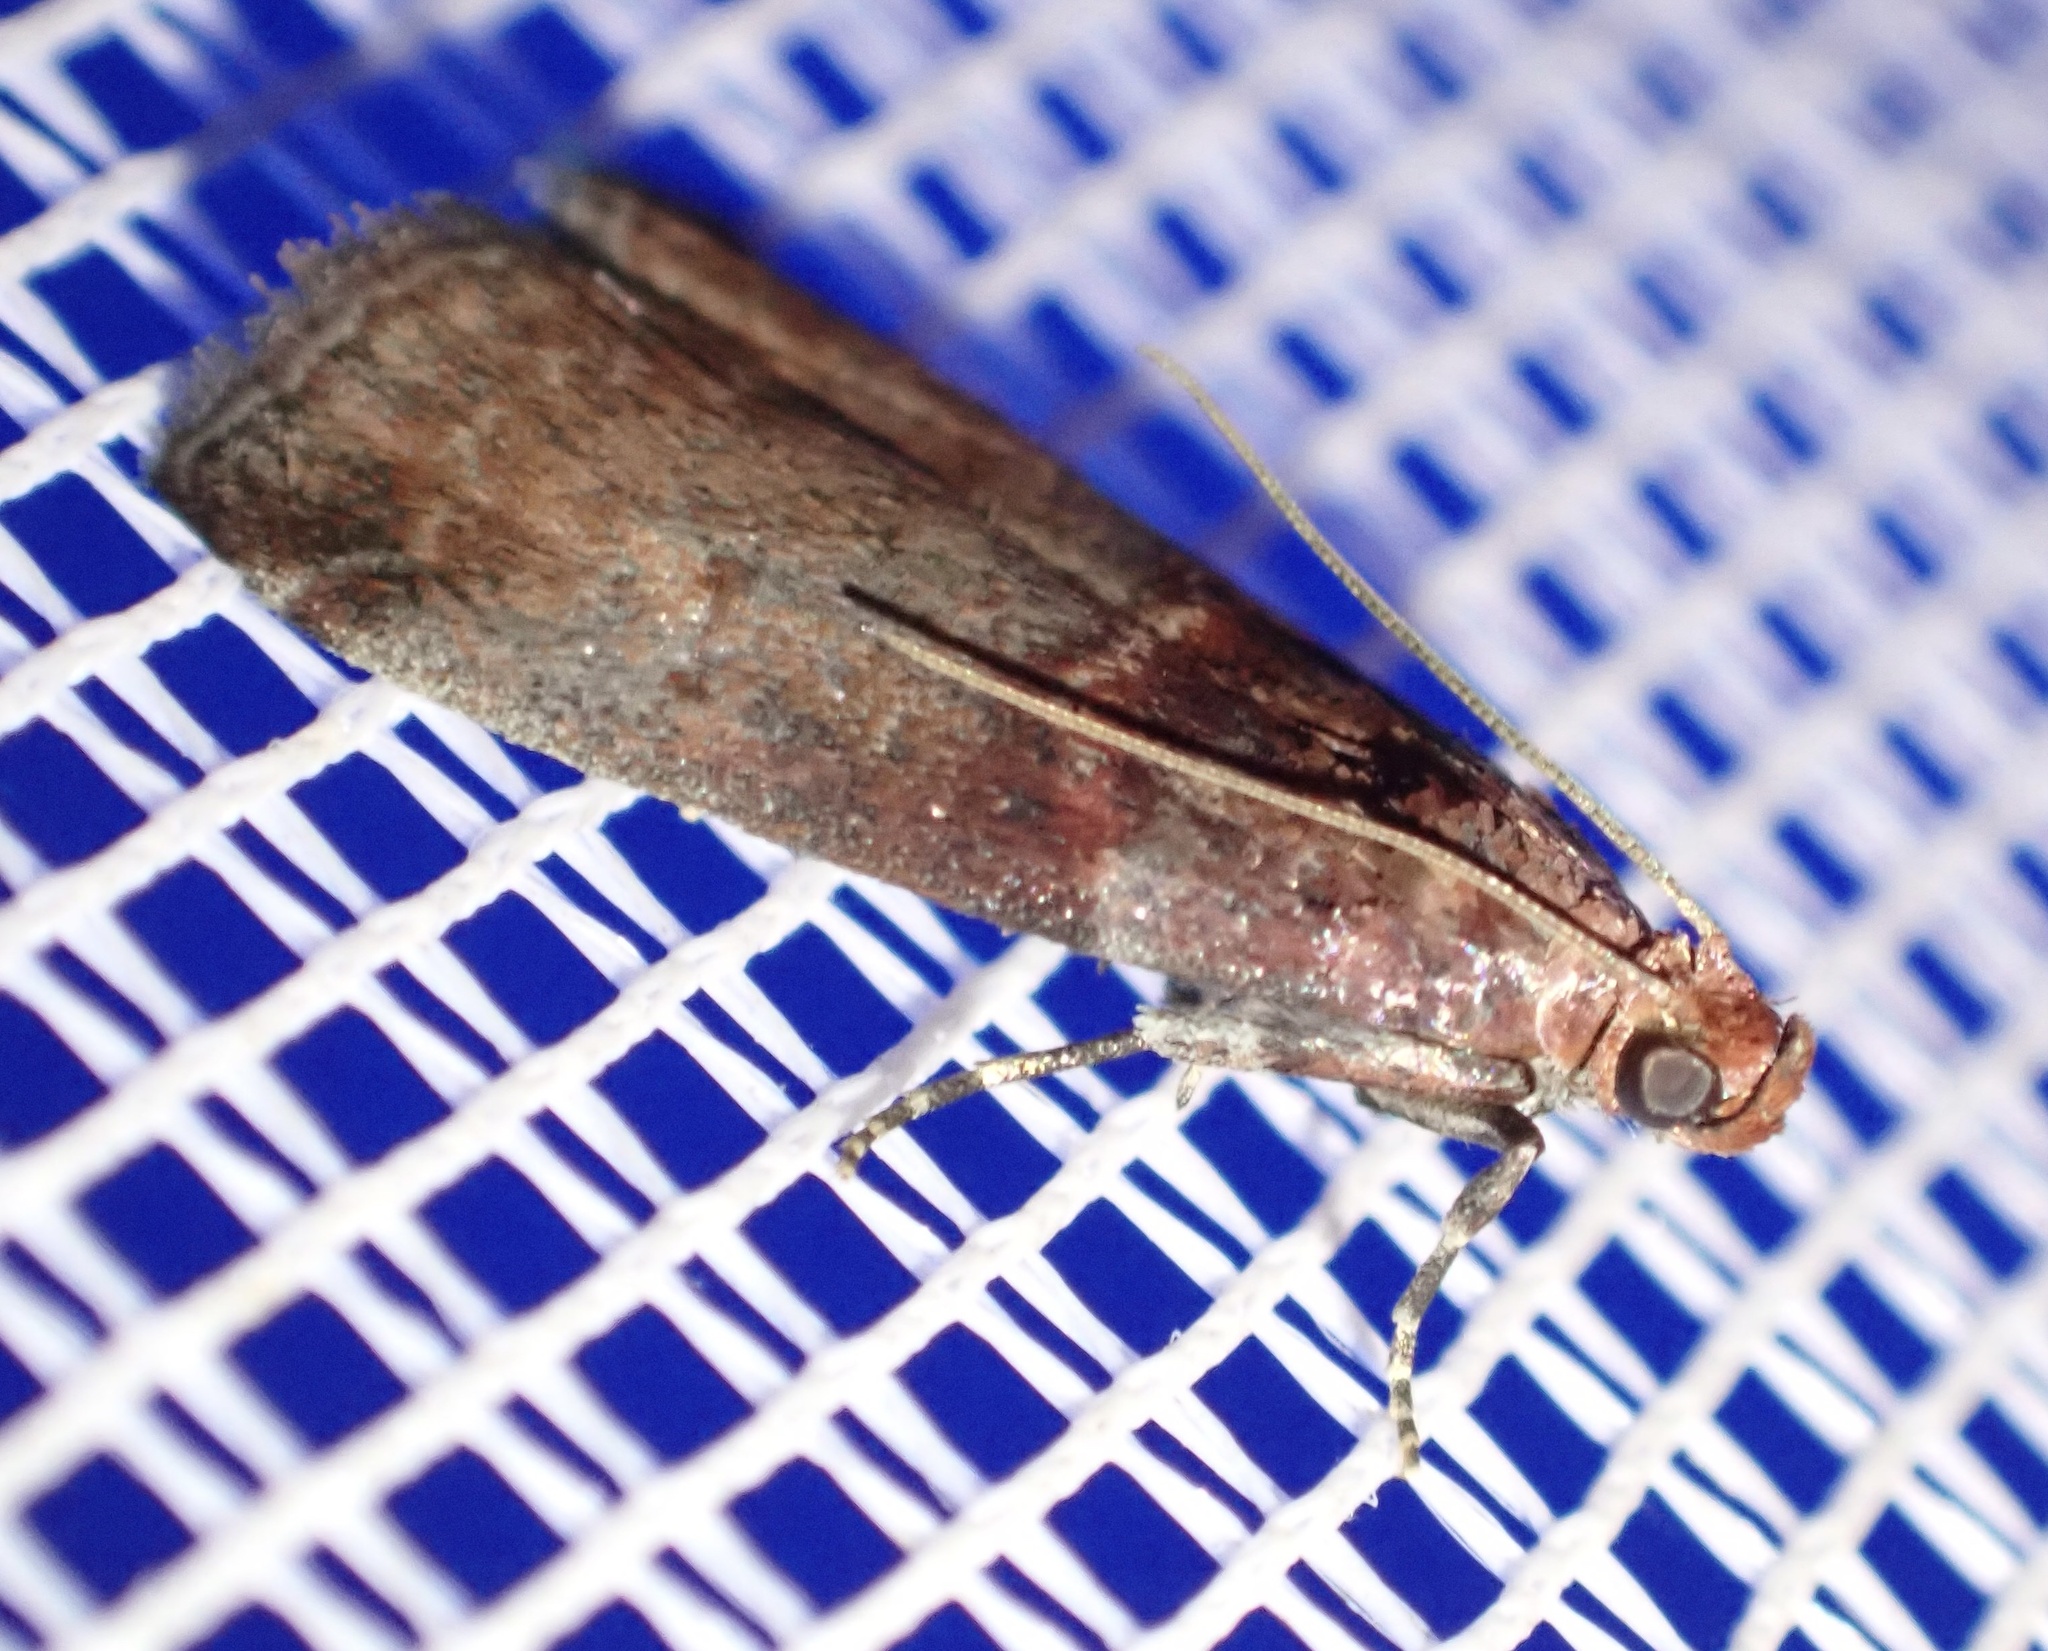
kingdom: Animalia
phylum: Arthropoda
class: Insecta
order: Lepidoptera
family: Pyralidae
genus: Acrobasis
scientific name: Acrobasis advenella
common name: Grey knot-horn
